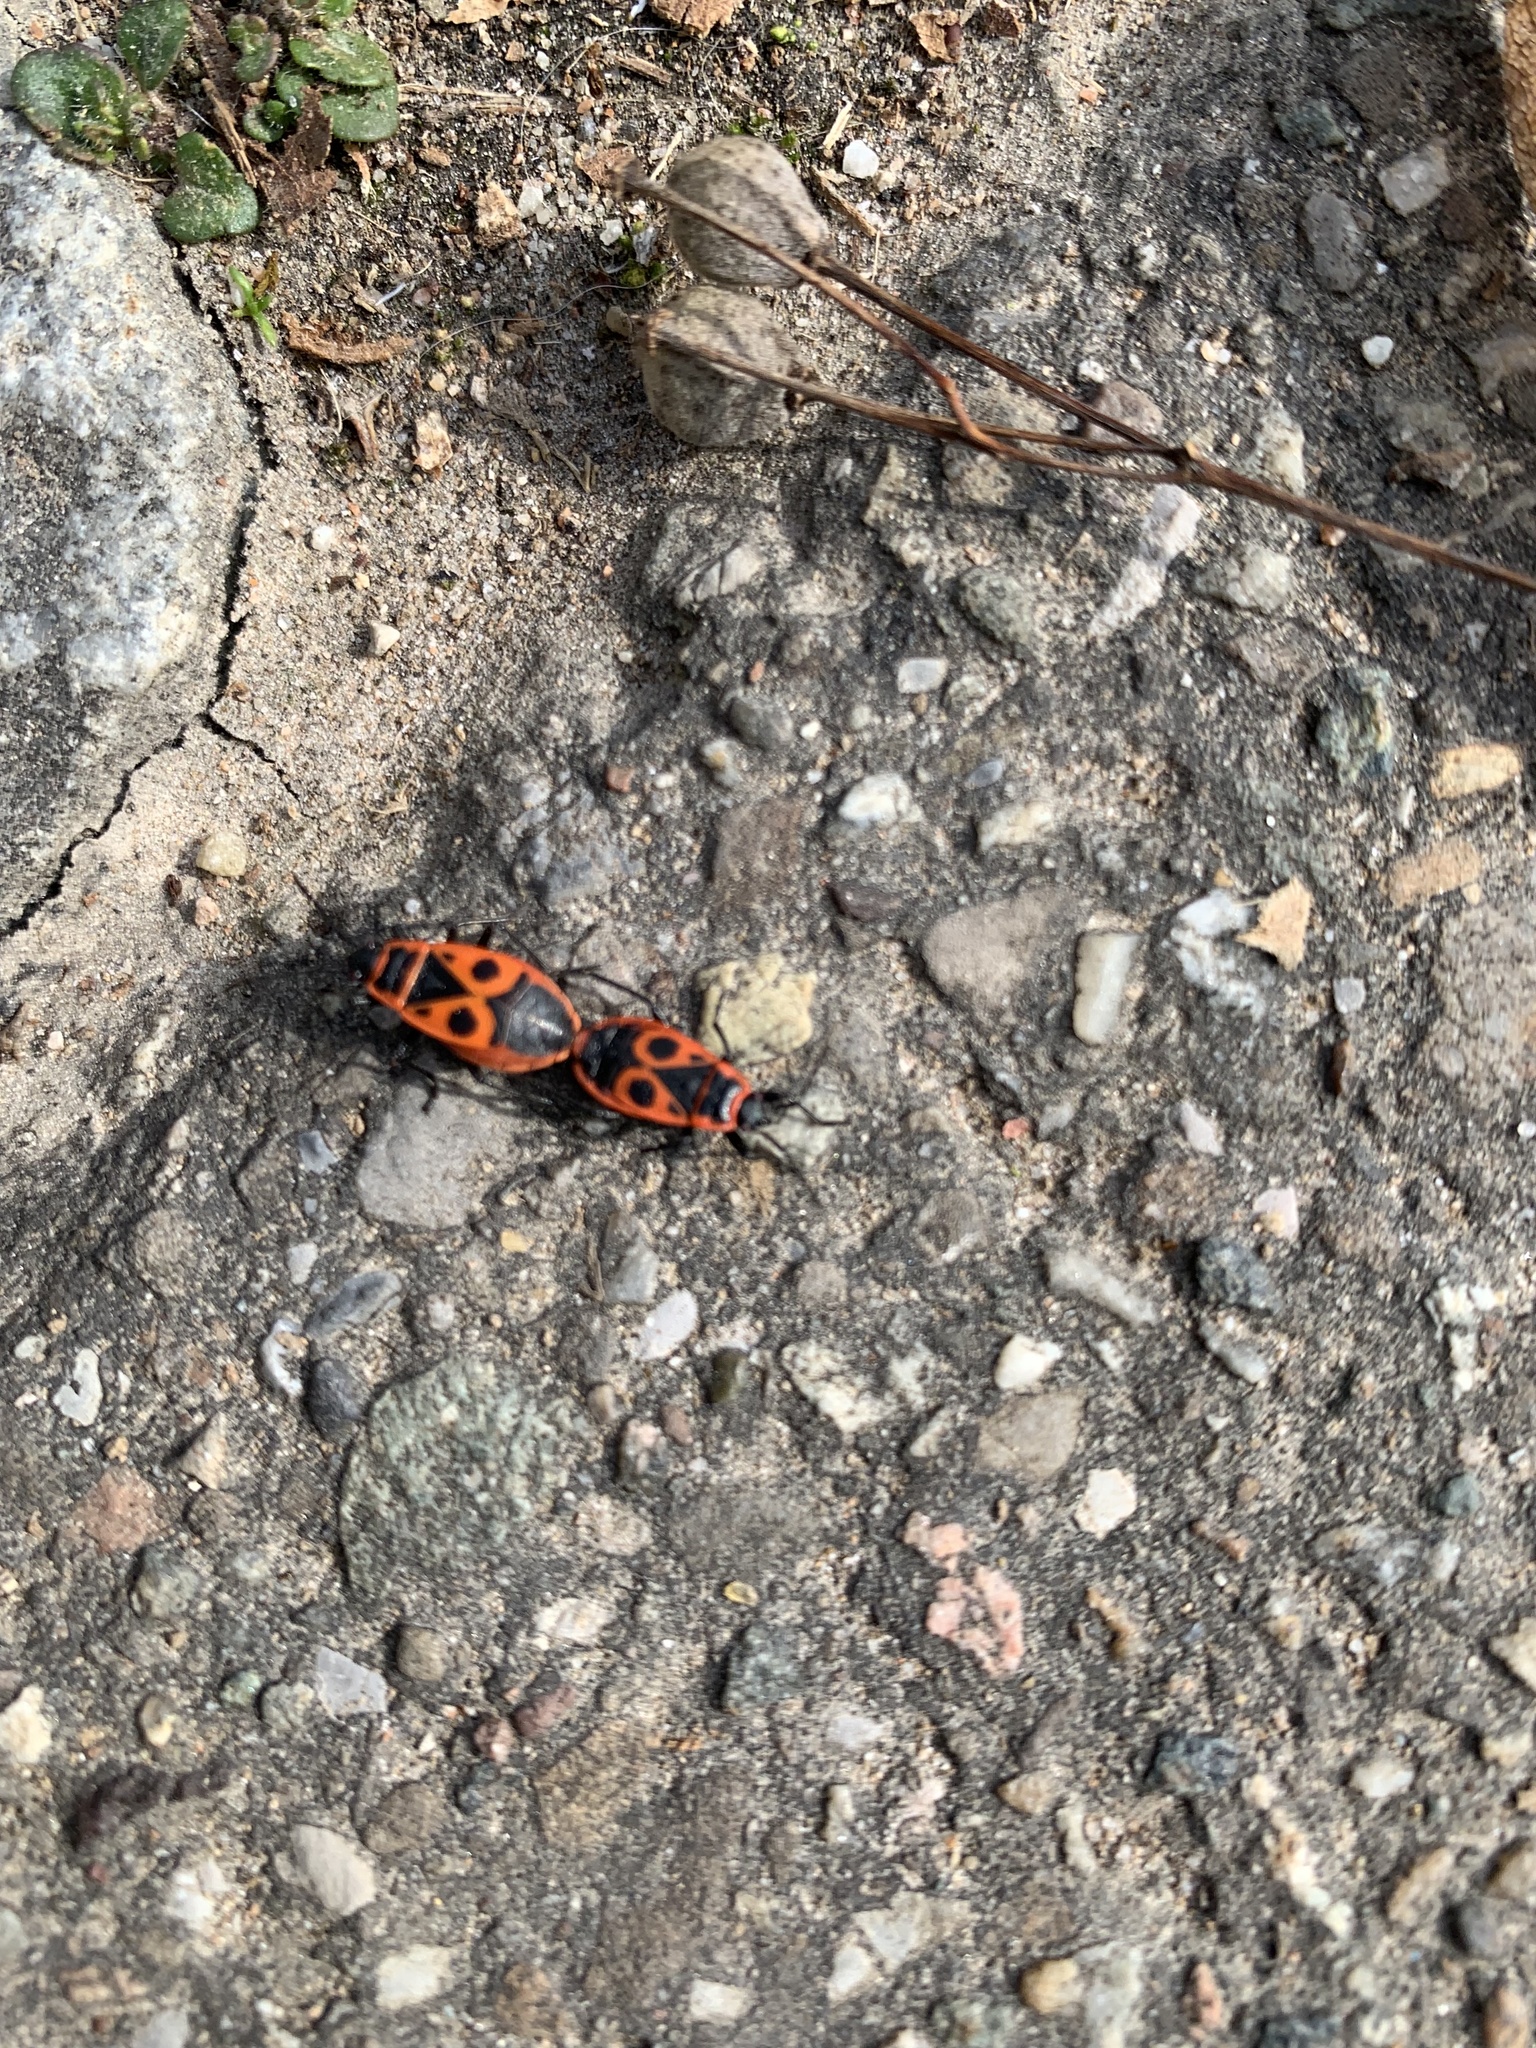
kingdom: Animalia
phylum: Arthropoda
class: Insecta
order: Hemiptera
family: Pyrrhocoridae
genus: Pyrrhocoris
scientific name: Pyrrhocoris apterus
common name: Firebug
